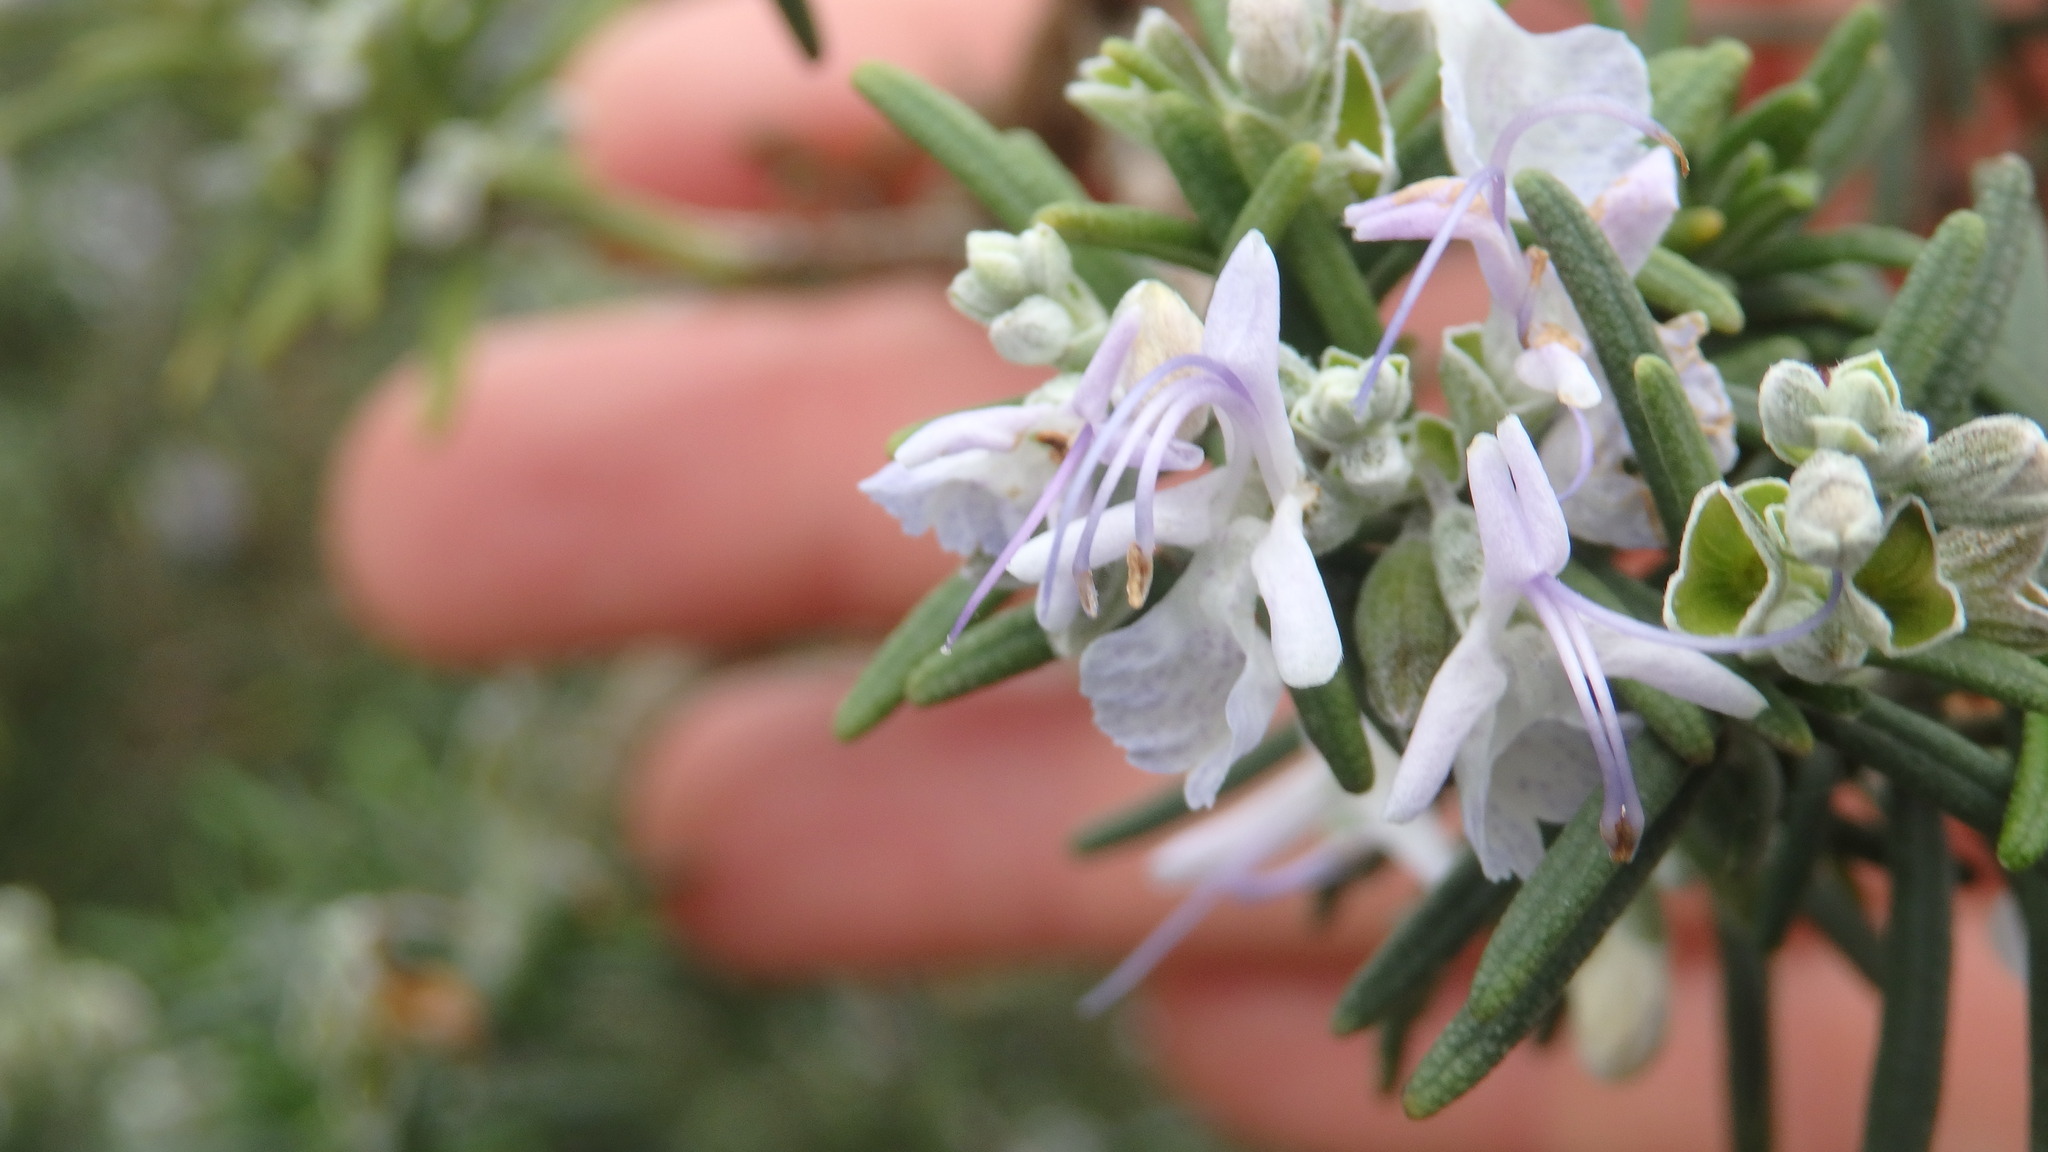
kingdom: Plantae
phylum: Tracheophyta
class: Magnoliopsida
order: Lamiales
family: Lamiaceae
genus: Salvia
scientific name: Salvia rosmarinus
